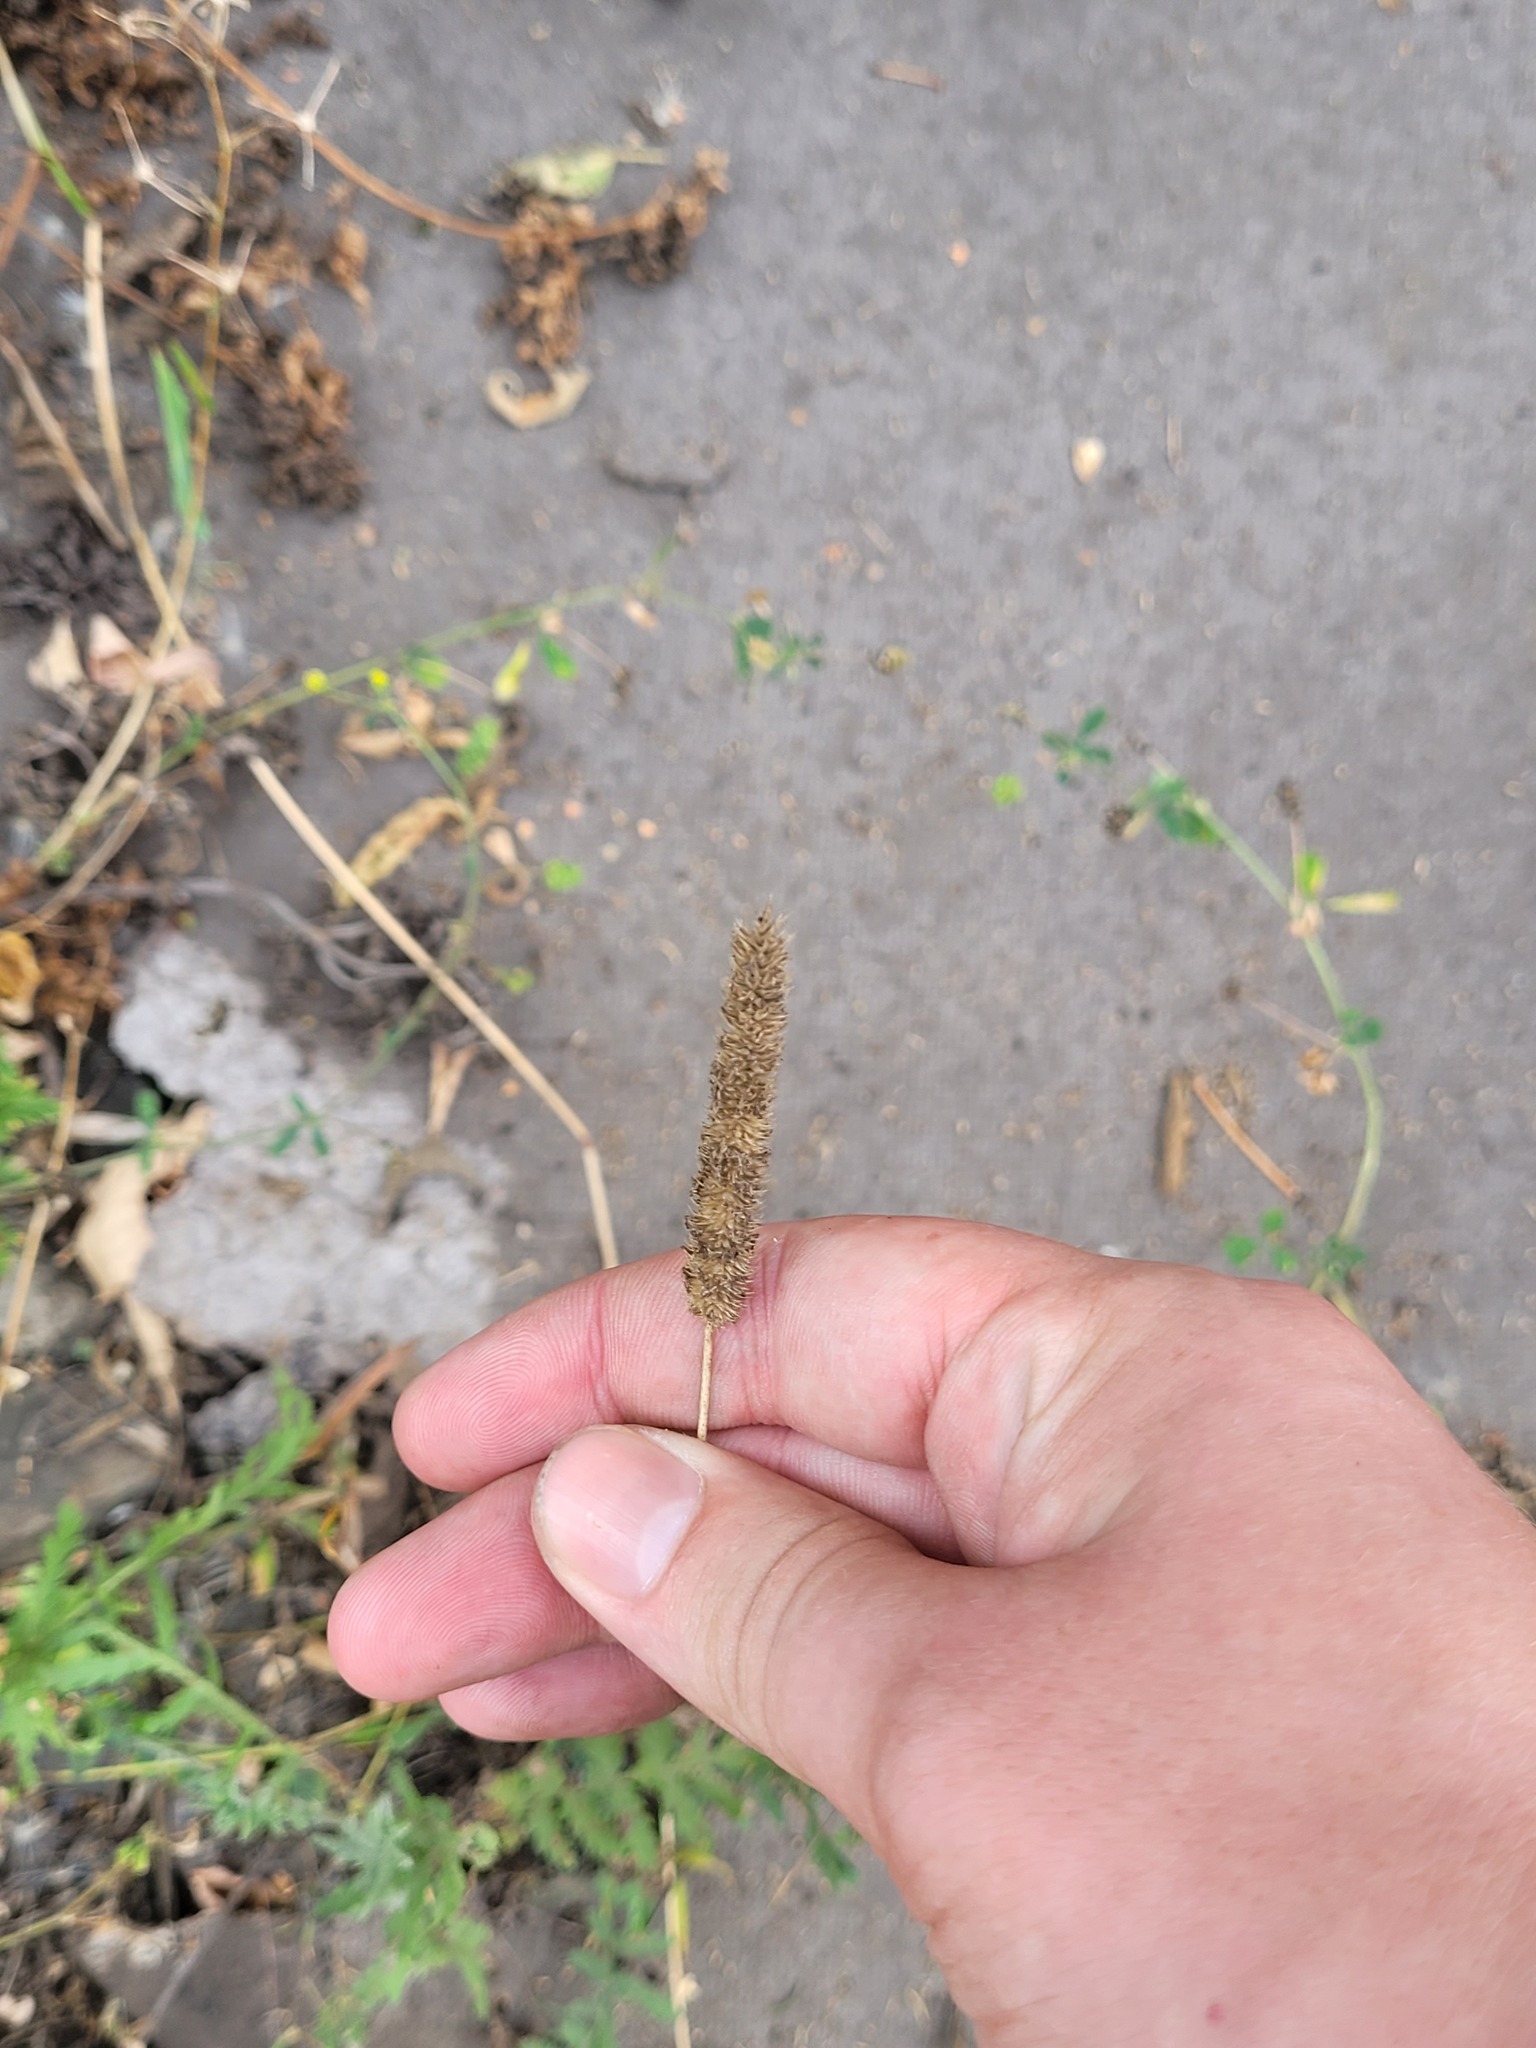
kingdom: Plantae
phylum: Tracheophyta
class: Liliopsida
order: Poales
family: Poaceae
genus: Phleum
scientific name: Phleum pratense
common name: Timothy grass
